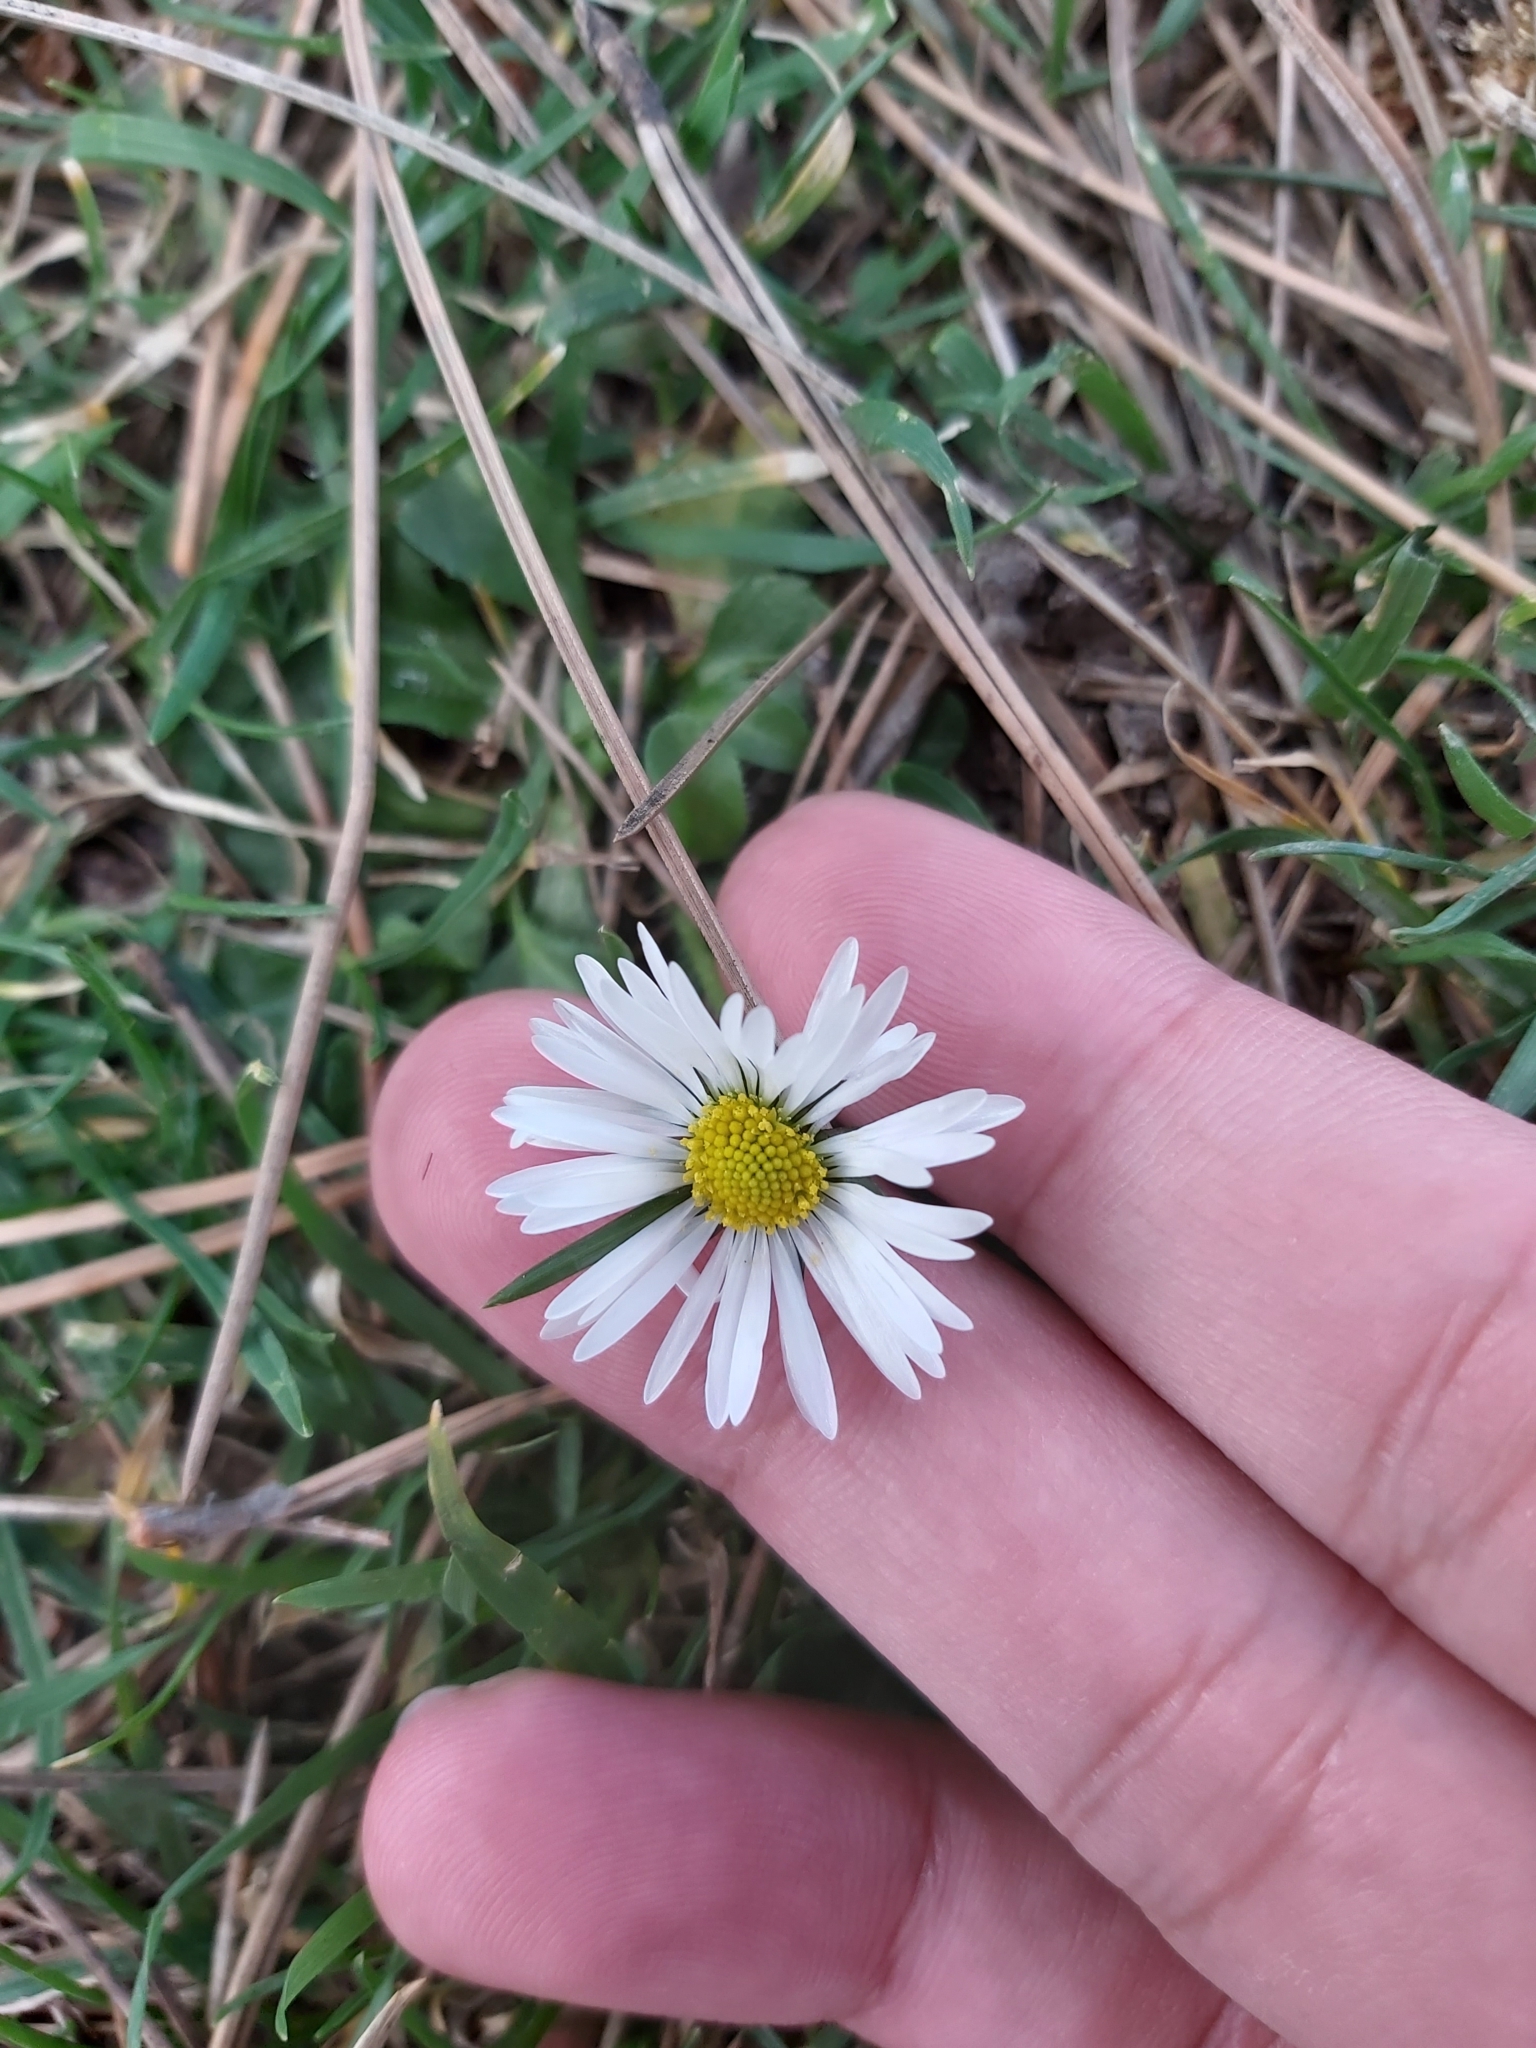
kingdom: Plantae
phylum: Tracheophyta
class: Magnoliopsida
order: Asterales
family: Asteraceae
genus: Bellis
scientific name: Bellis perennis
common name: Lawndaisy
